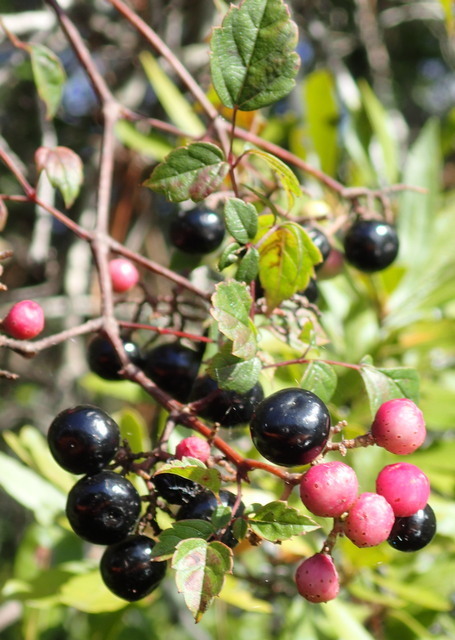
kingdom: Plantae
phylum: Tracheophyta
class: Magnoliopsida
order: Vitales
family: Vitaceae
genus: Nekemias
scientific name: Nekemias arborea
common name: Peppervine
